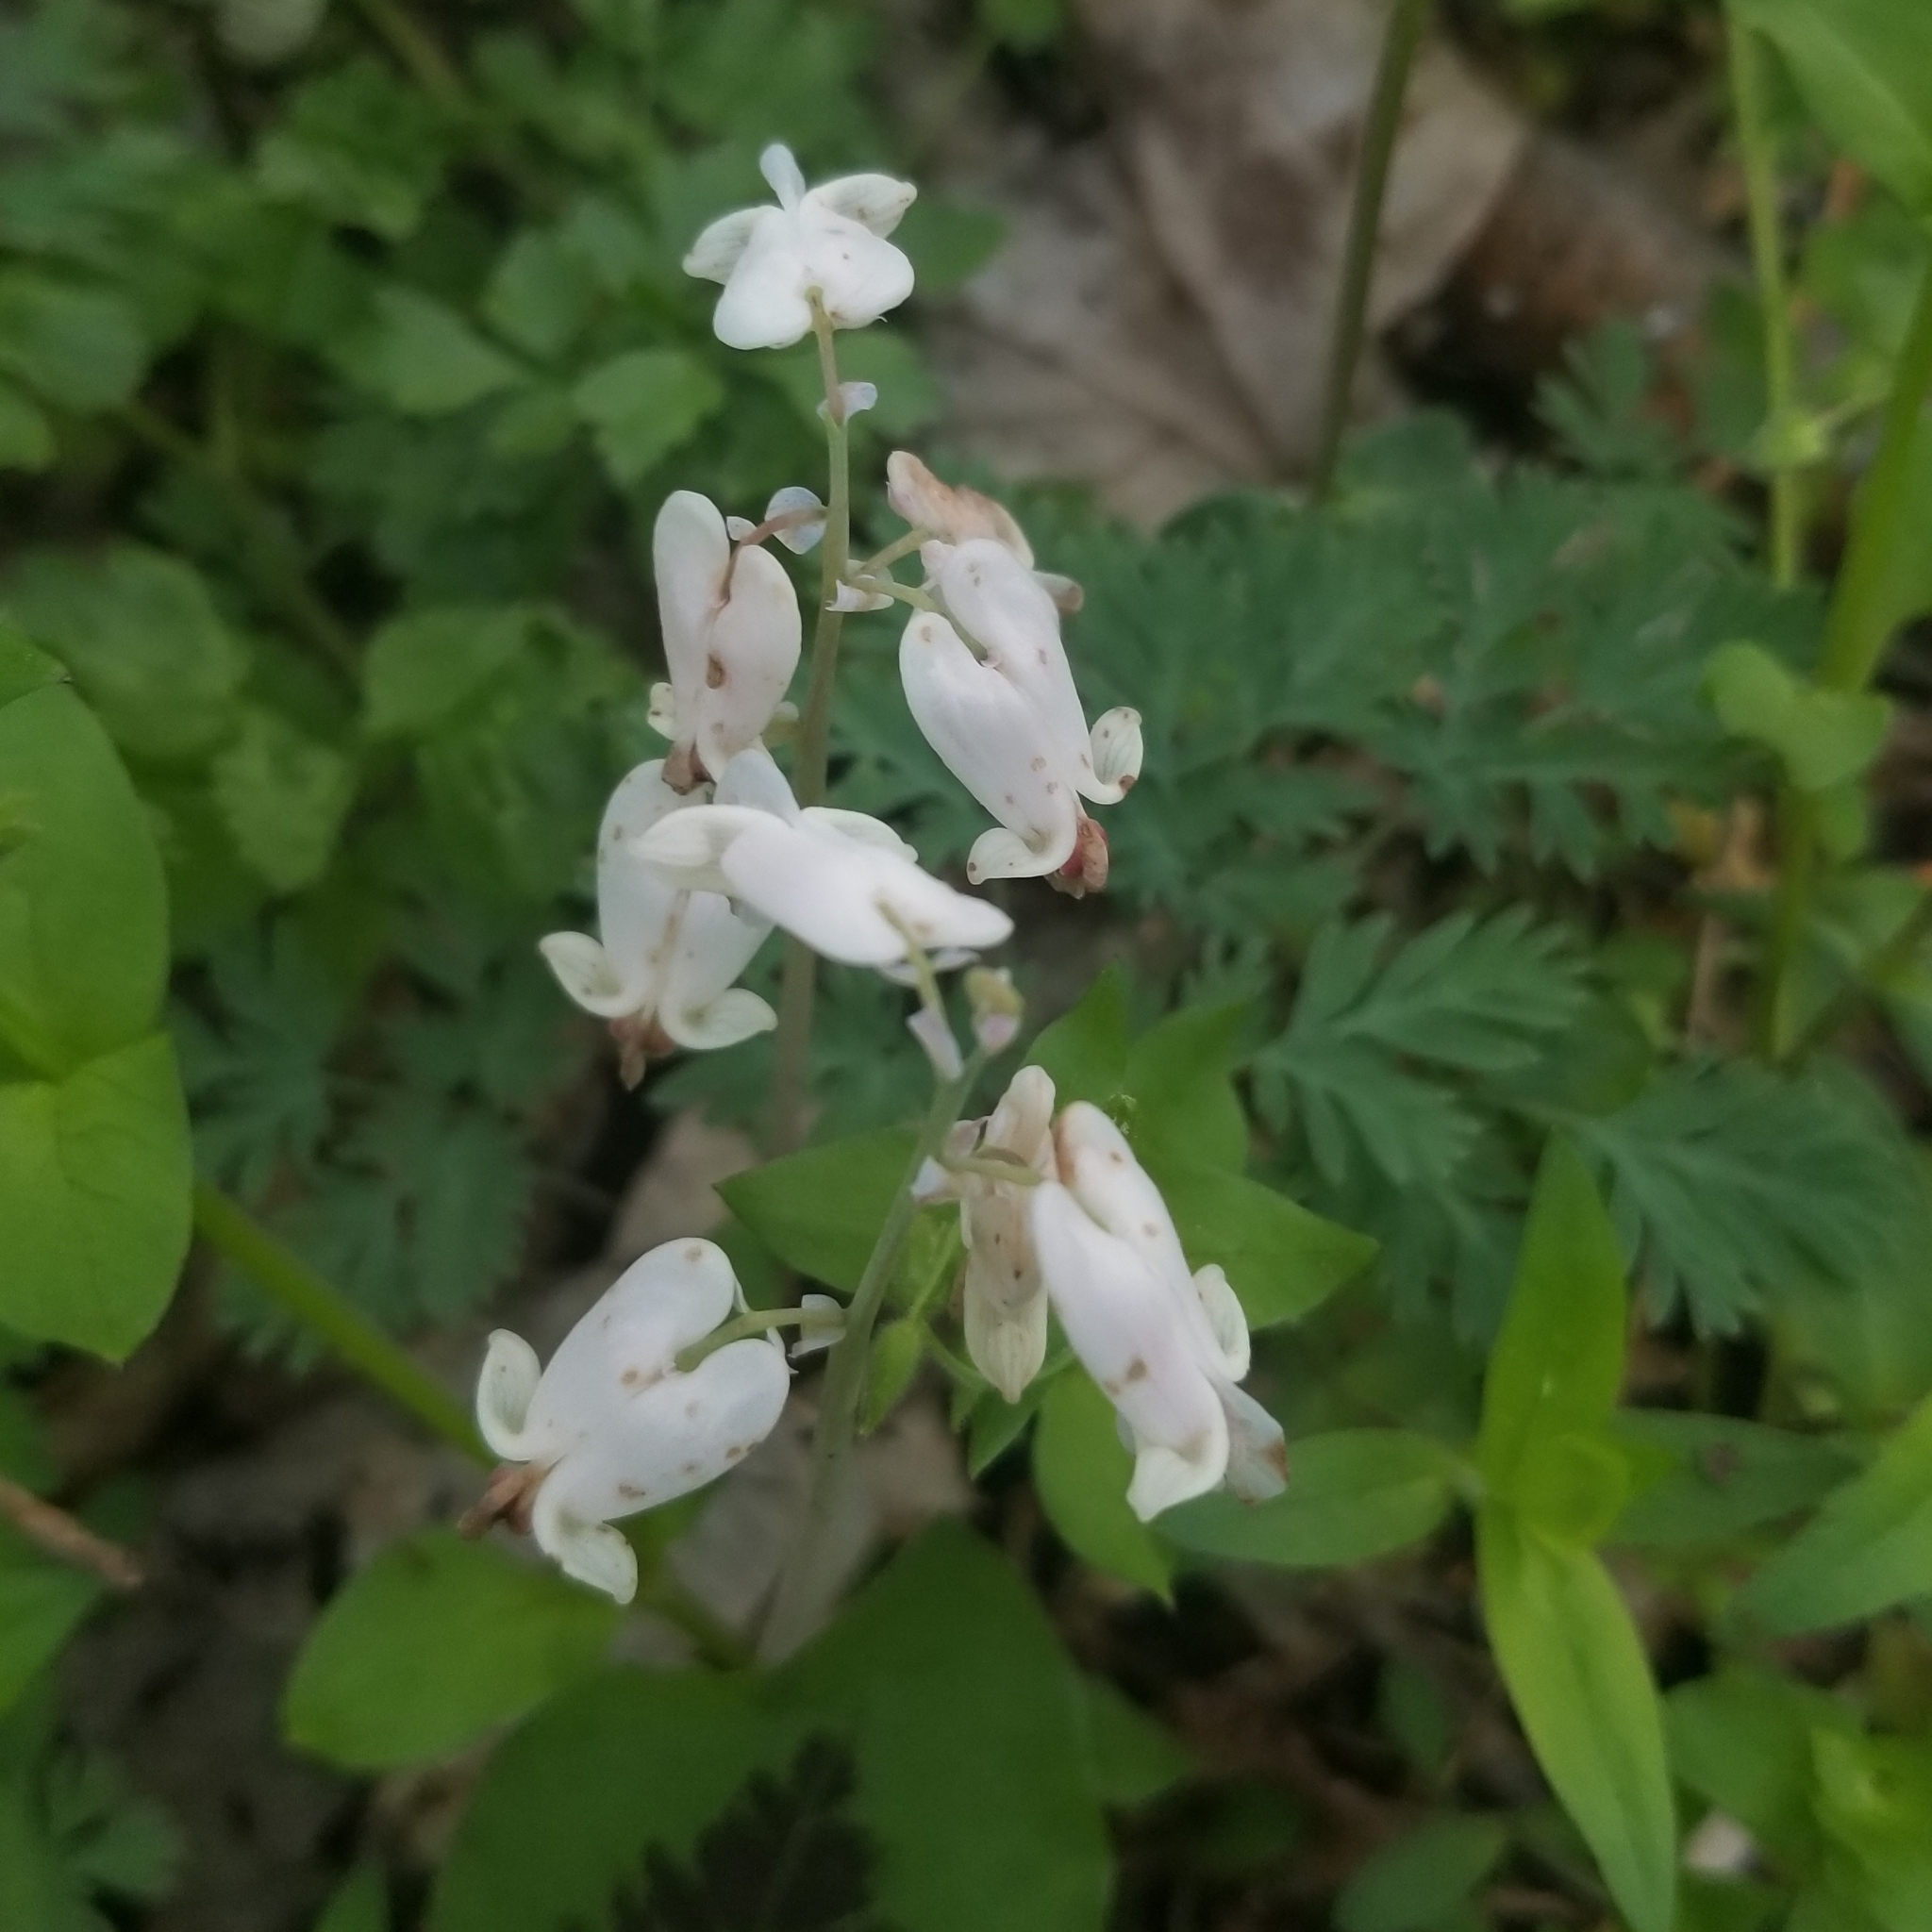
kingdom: Plantae
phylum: Tracheophyta
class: Magnoliopsida
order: Ranunculales
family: Papaveraceae
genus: Dicentra
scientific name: Dicentra canadensis
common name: Squirrel-corn
